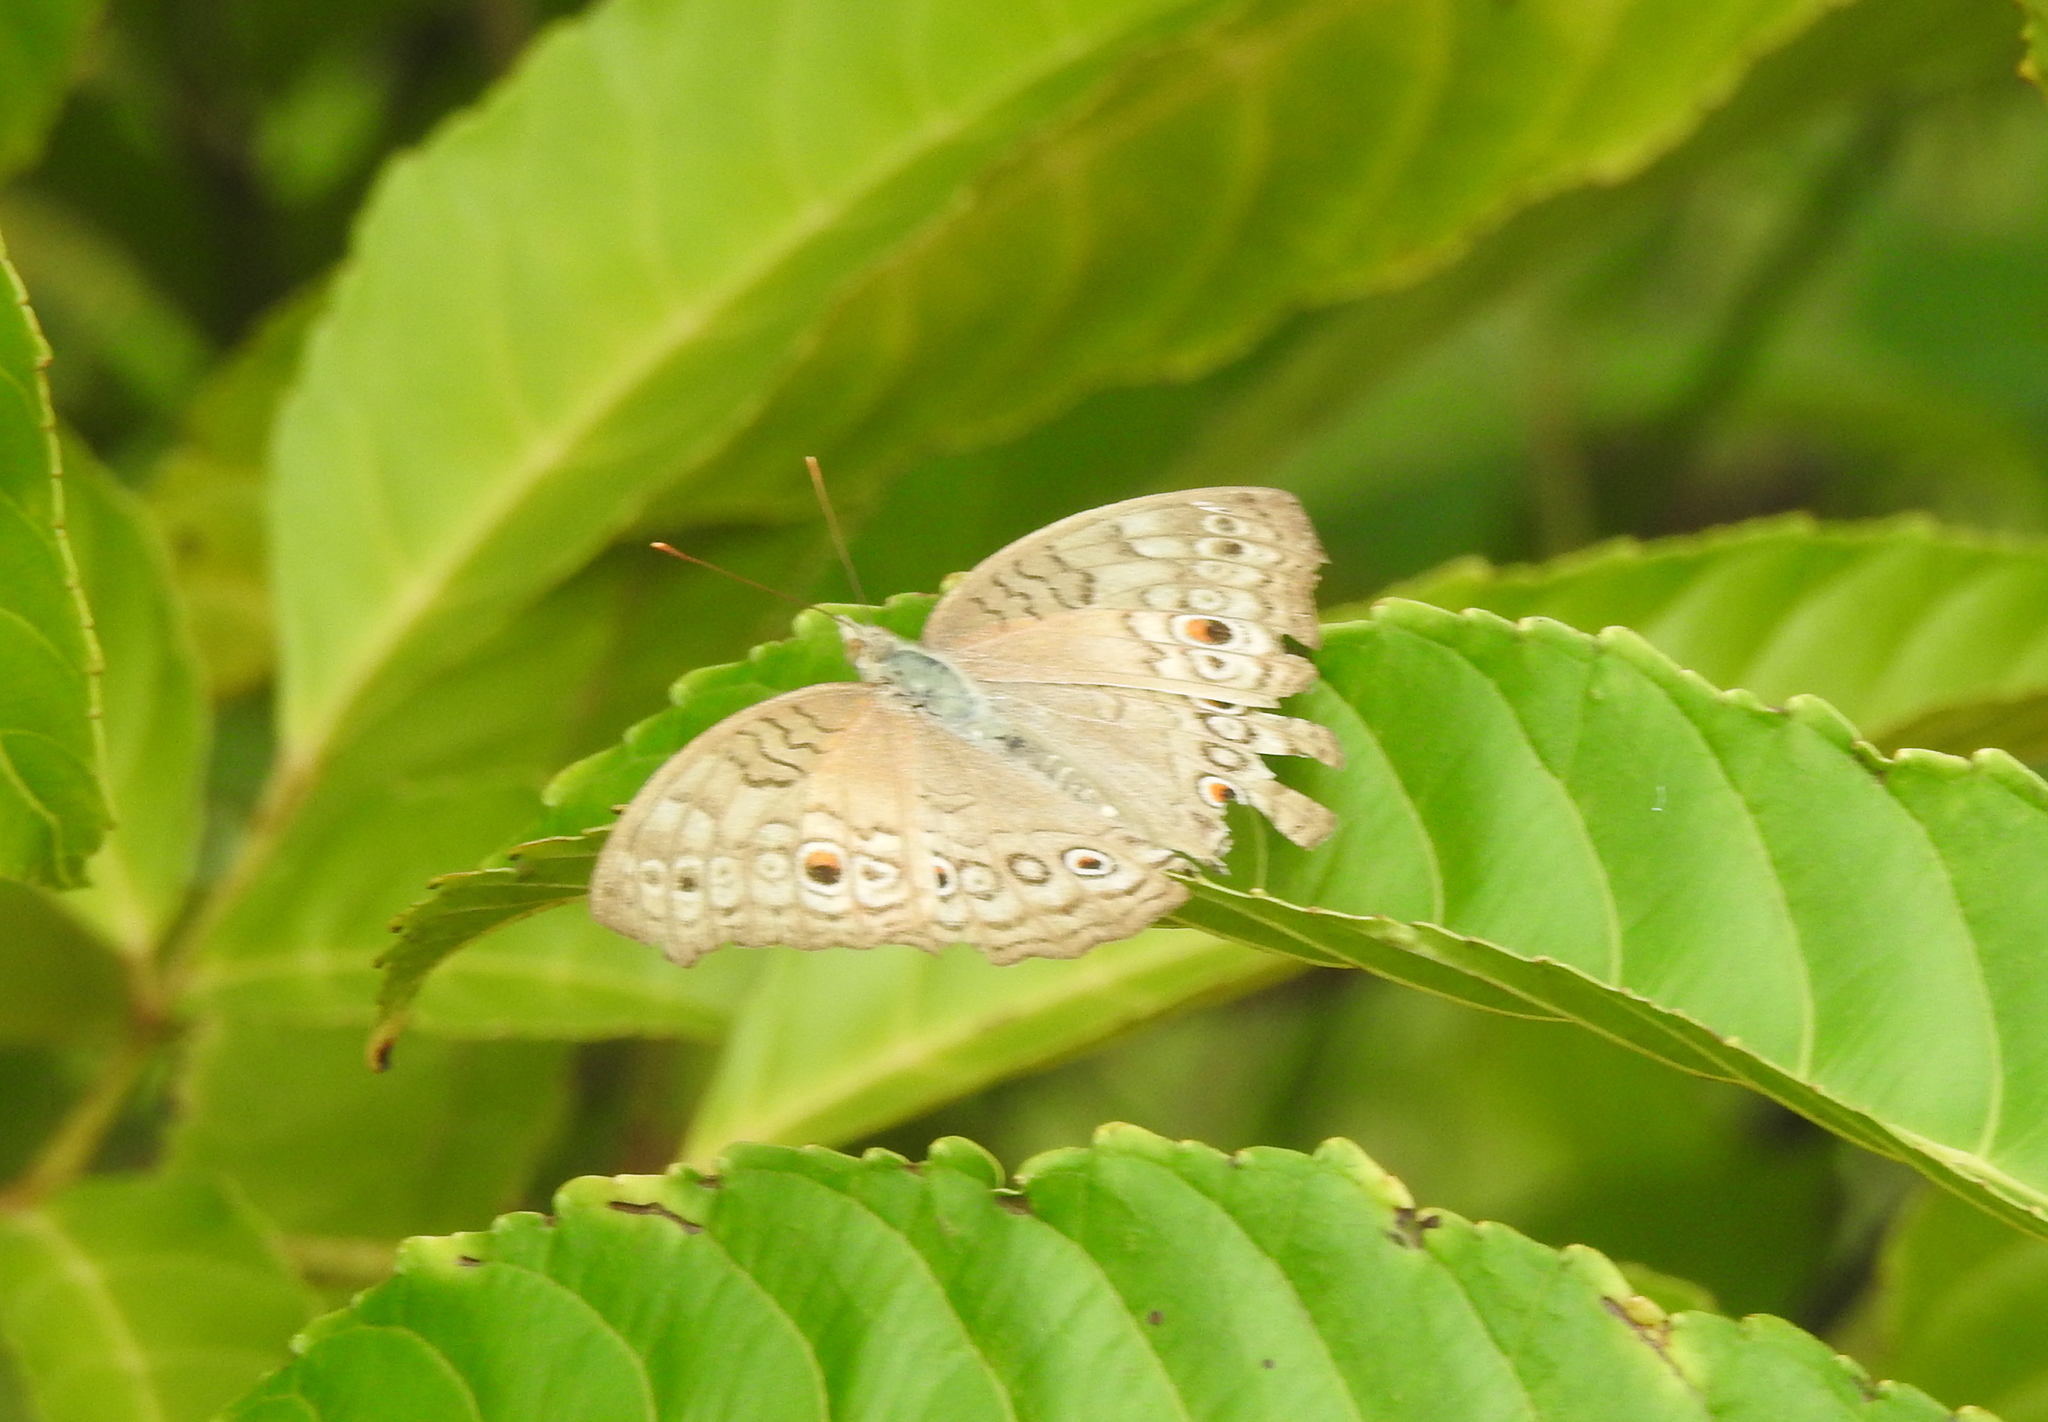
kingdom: Animalia
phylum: Arthropoda
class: Insecta
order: Lepidoptera
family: Nymphalidae
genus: Junonia
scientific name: Junonia atlites
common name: Grey pansy
